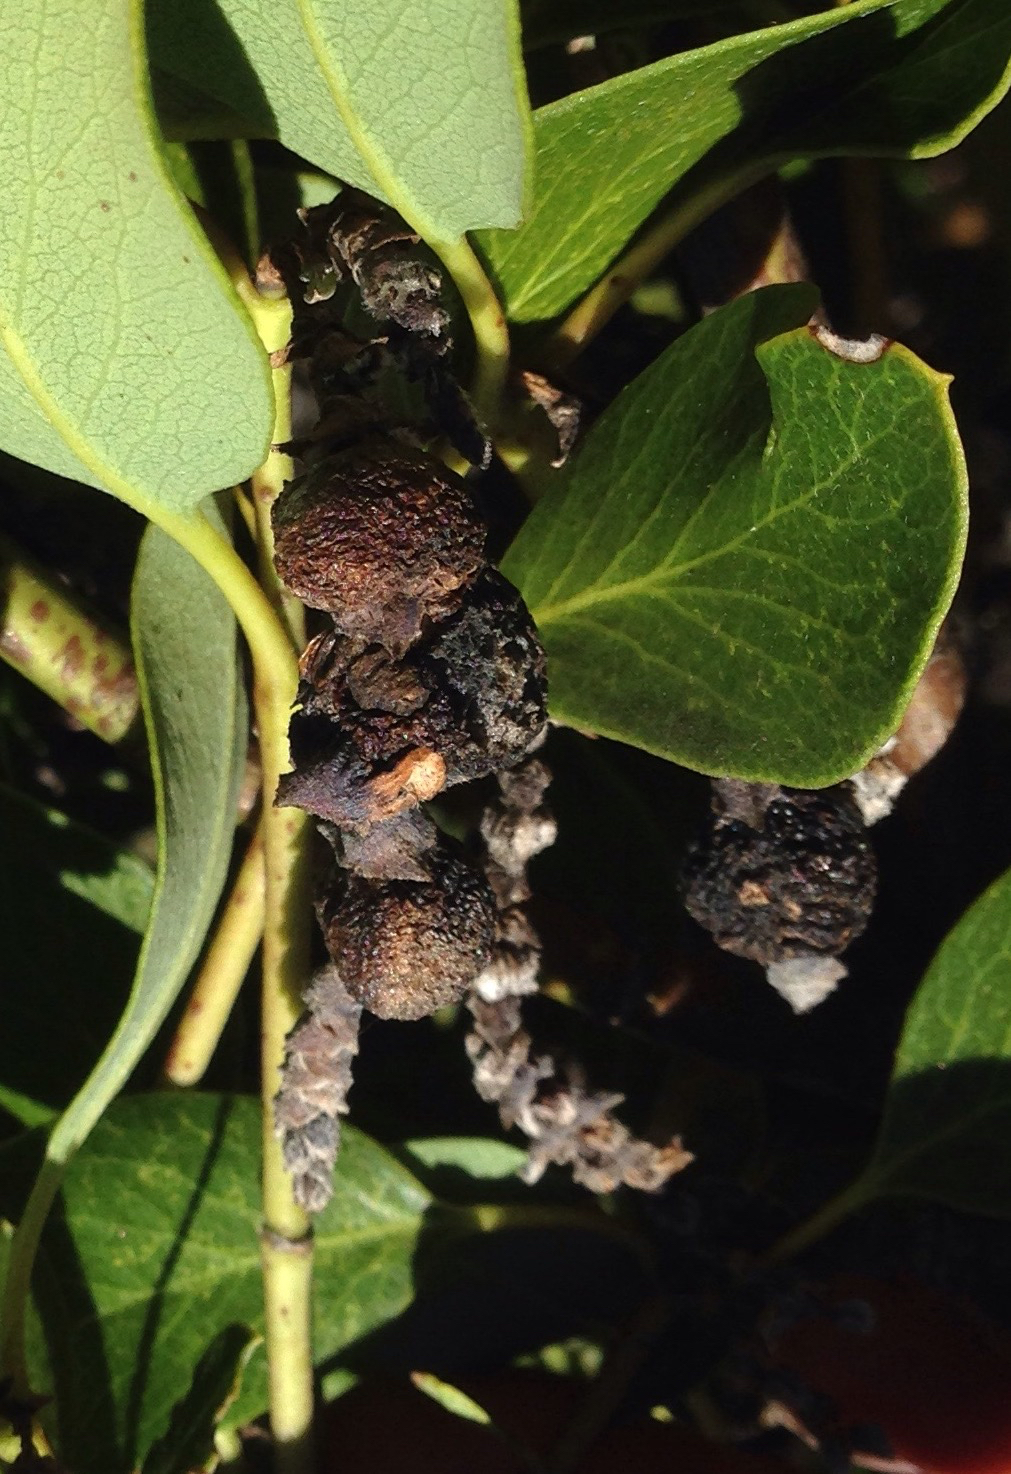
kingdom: Animalia
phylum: Arthropoda
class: Insecta
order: Diptera
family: Cecidomyiidae
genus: Asphondylia
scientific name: Asphondylia garryae
